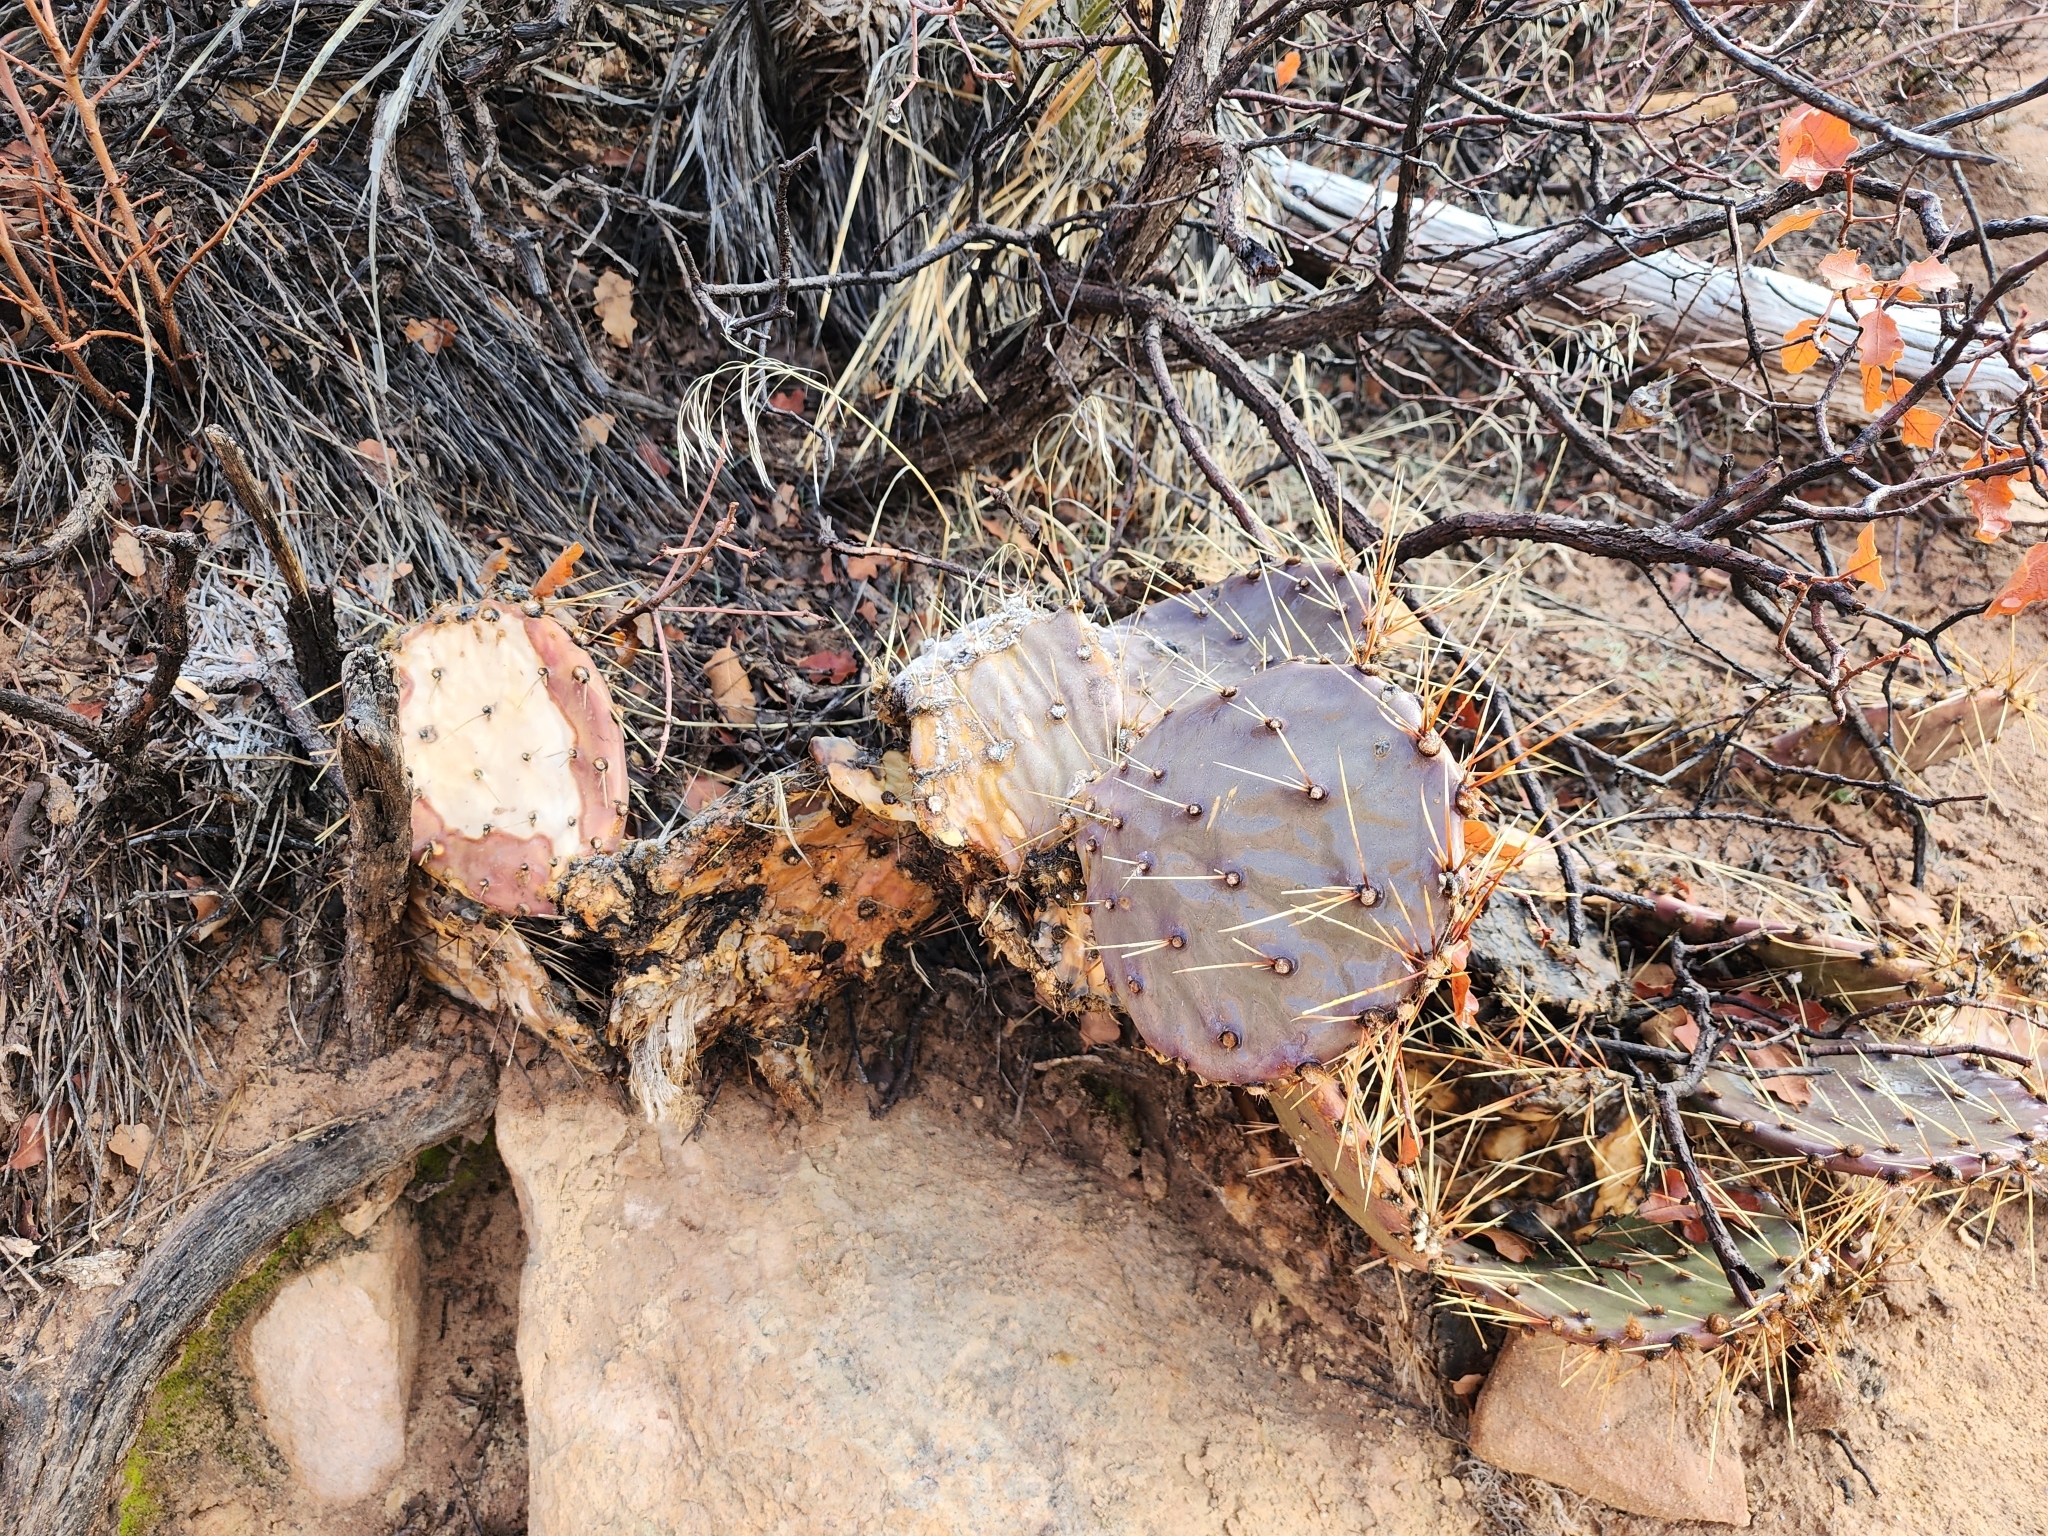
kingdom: Plantae
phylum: Tracheophyta
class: Magnoliopsida
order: Caryophyllales
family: Cactaceae
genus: Opuntia
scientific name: Opuntia phaeacantha
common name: New mexico prickly-pear
